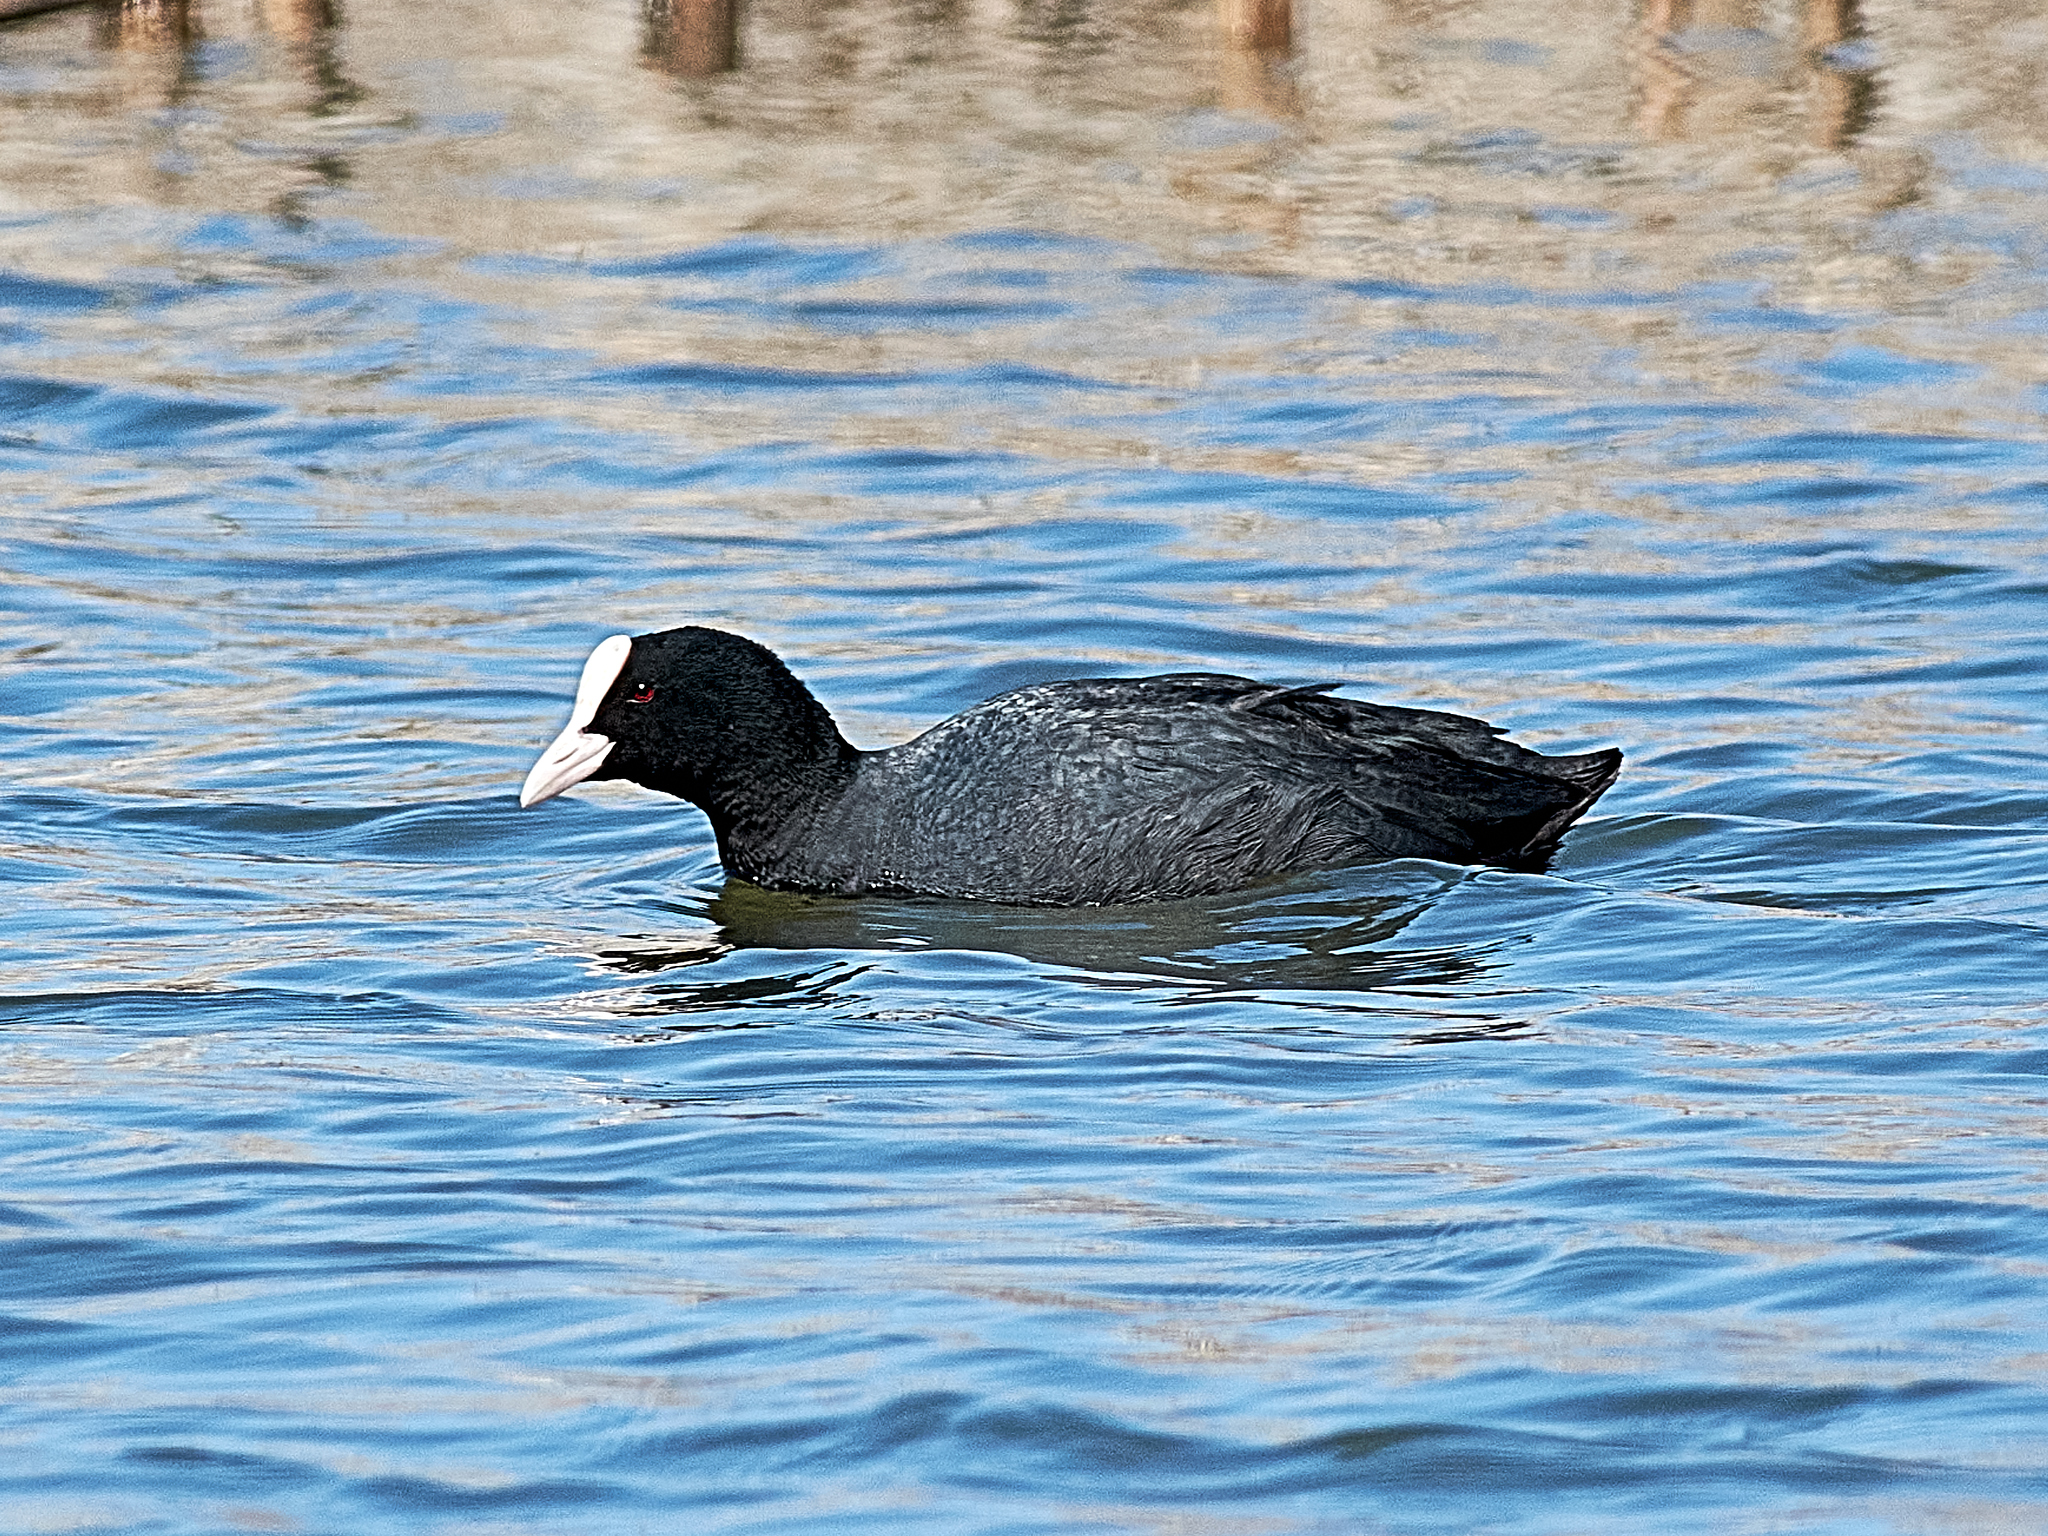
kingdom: Animalia
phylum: Chordata
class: Aves
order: Gruiformes
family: Rallidae
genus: Fulica
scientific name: Fulica atra
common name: Eurasian coot
